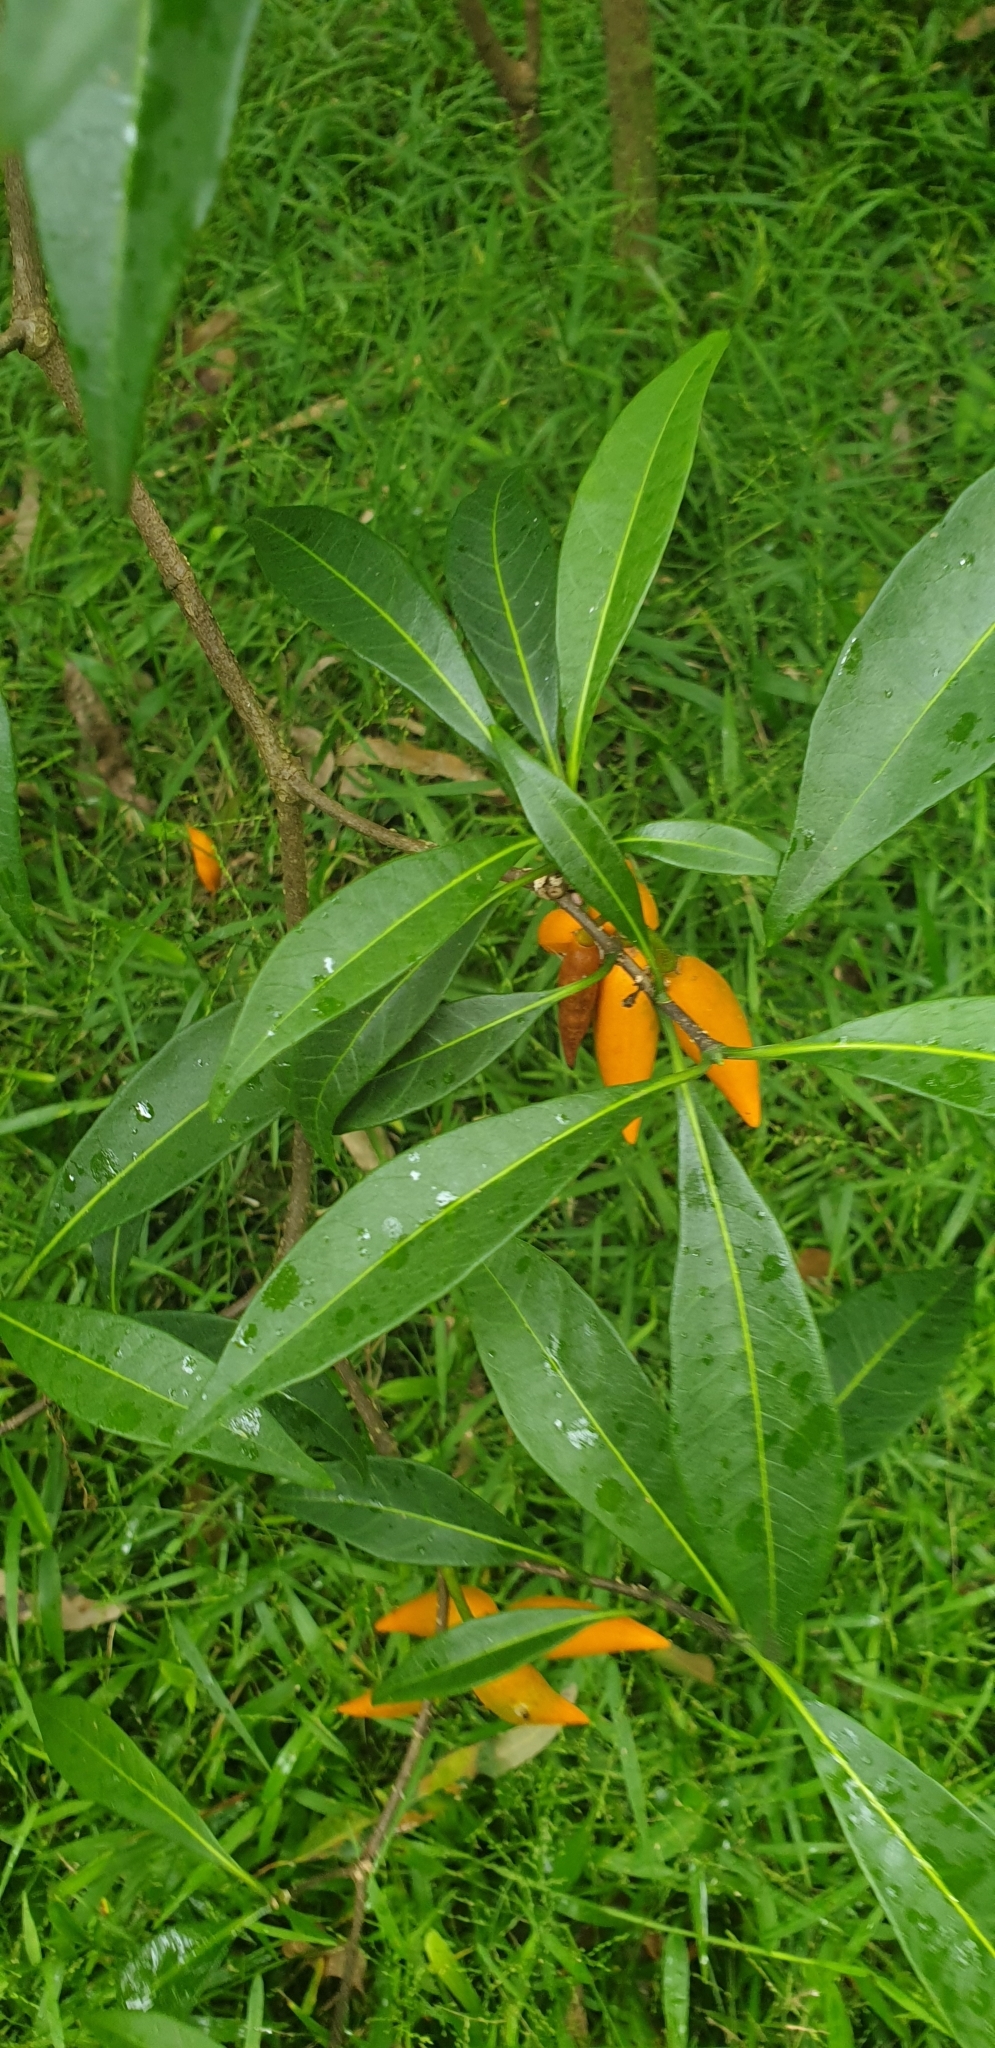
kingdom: Plantae
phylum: Tracheophyta
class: Magnoliopsida
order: Gentianales
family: Apocynaceae
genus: Tabernaemontana
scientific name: Tabernaemontana pandacaqui
